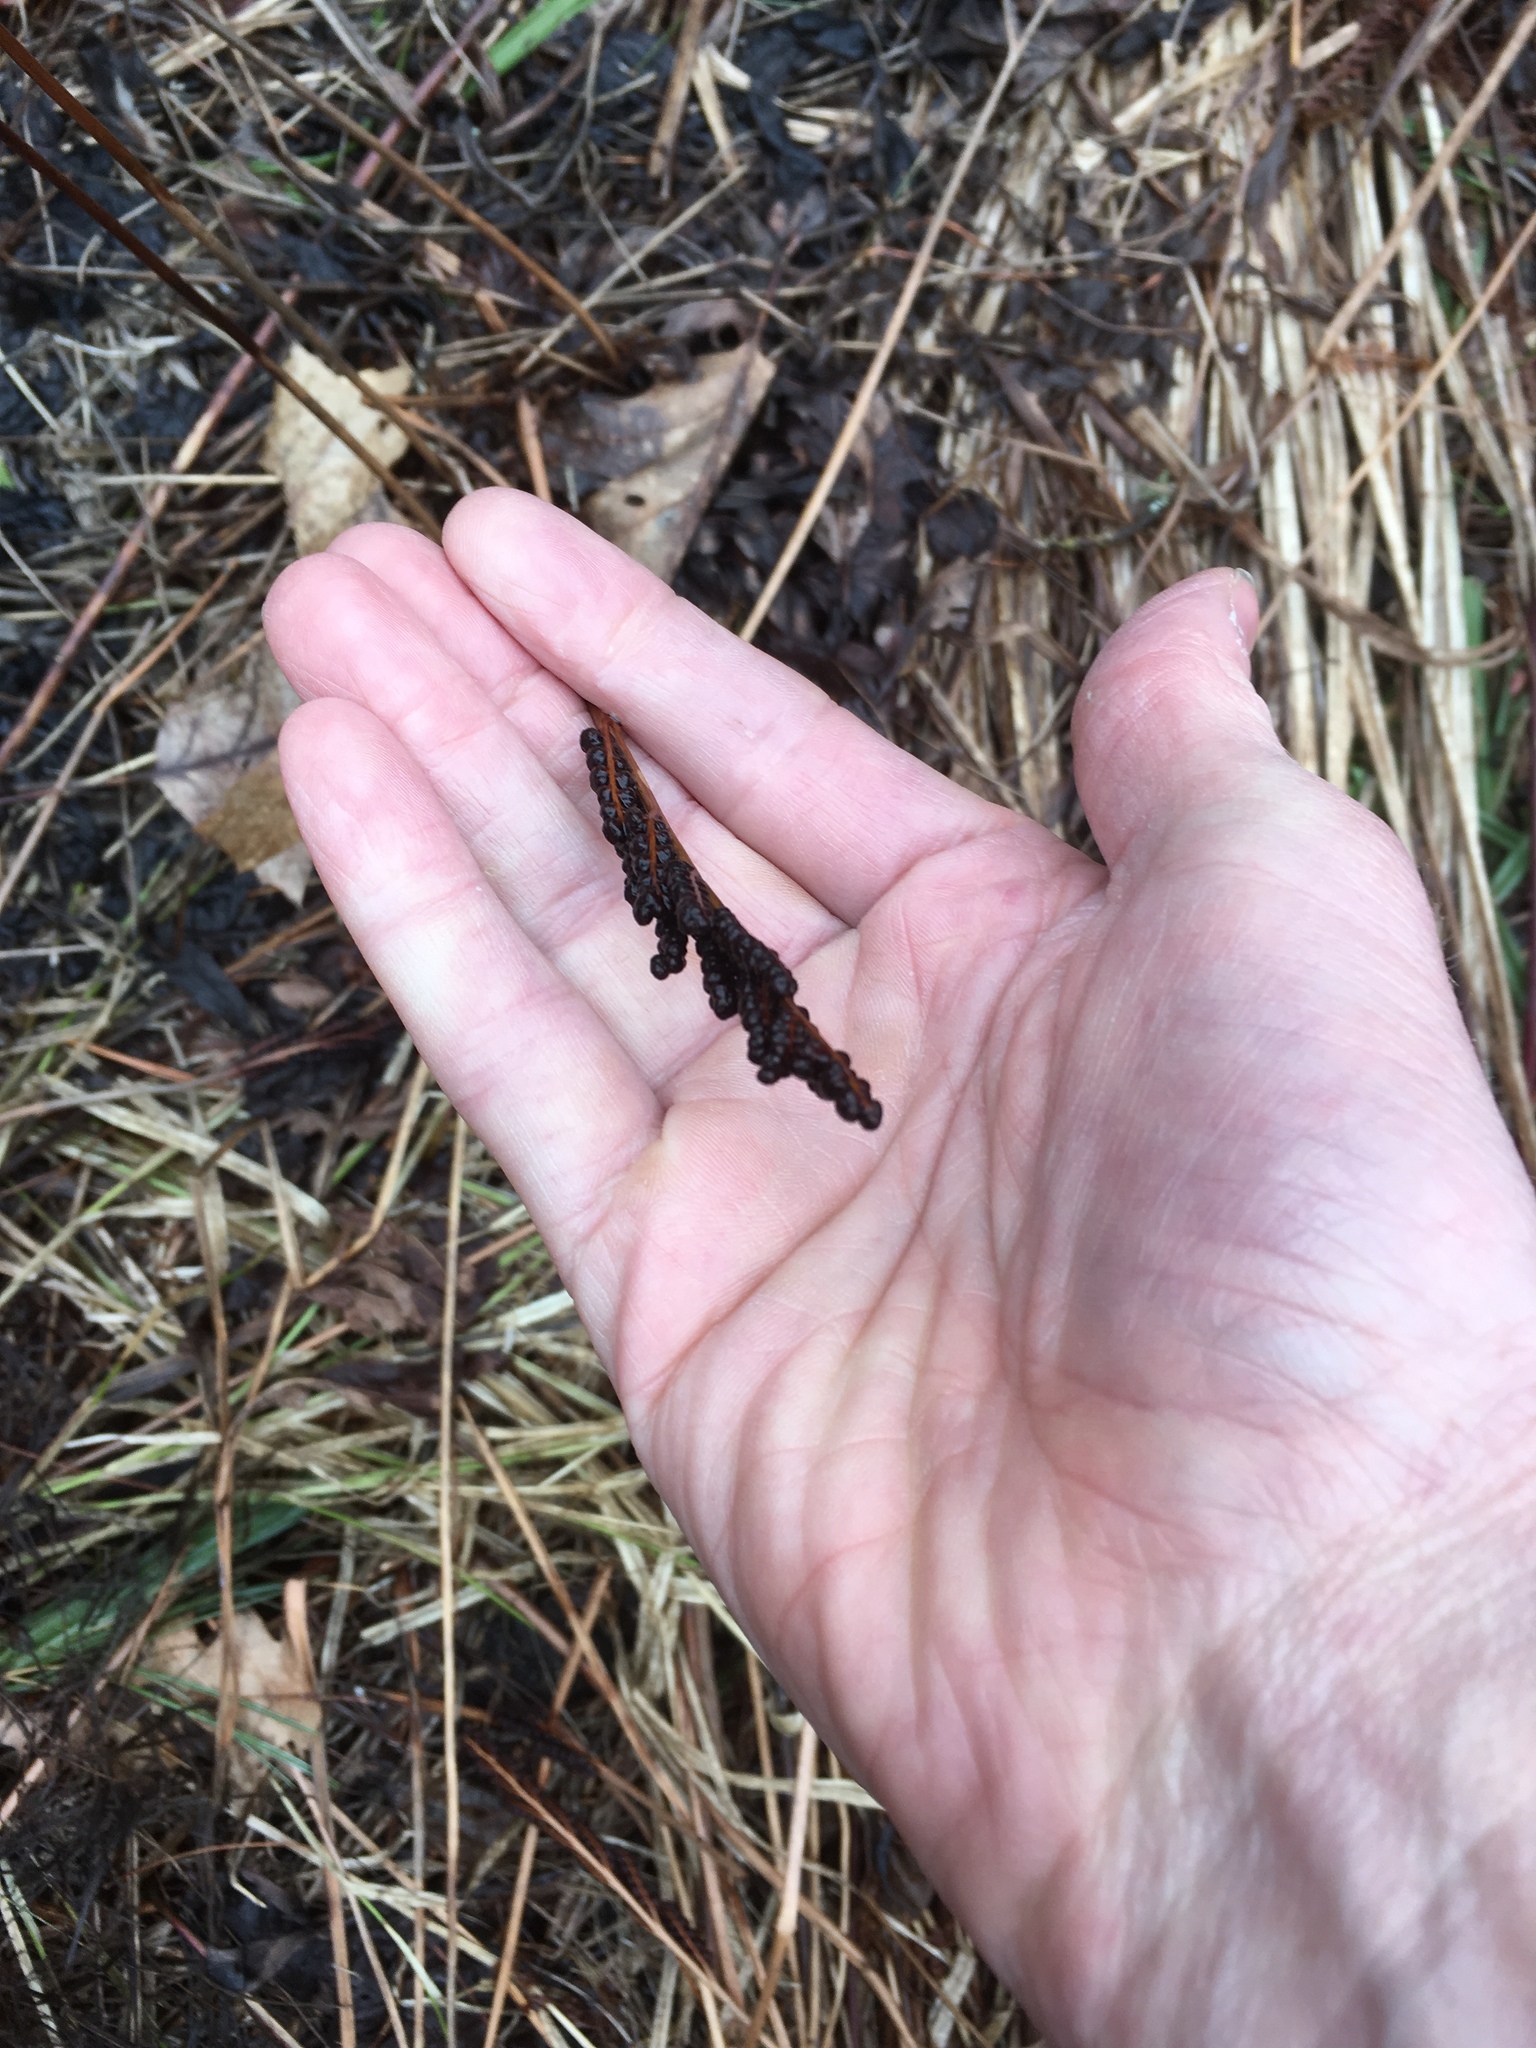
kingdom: Plantae
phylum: Tracheophyta
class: Polypodiopsida
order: Polypodiales
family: Onocleaceae
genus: Onoclea
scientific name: Onoclea sensibilis
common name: Sensitive fern
